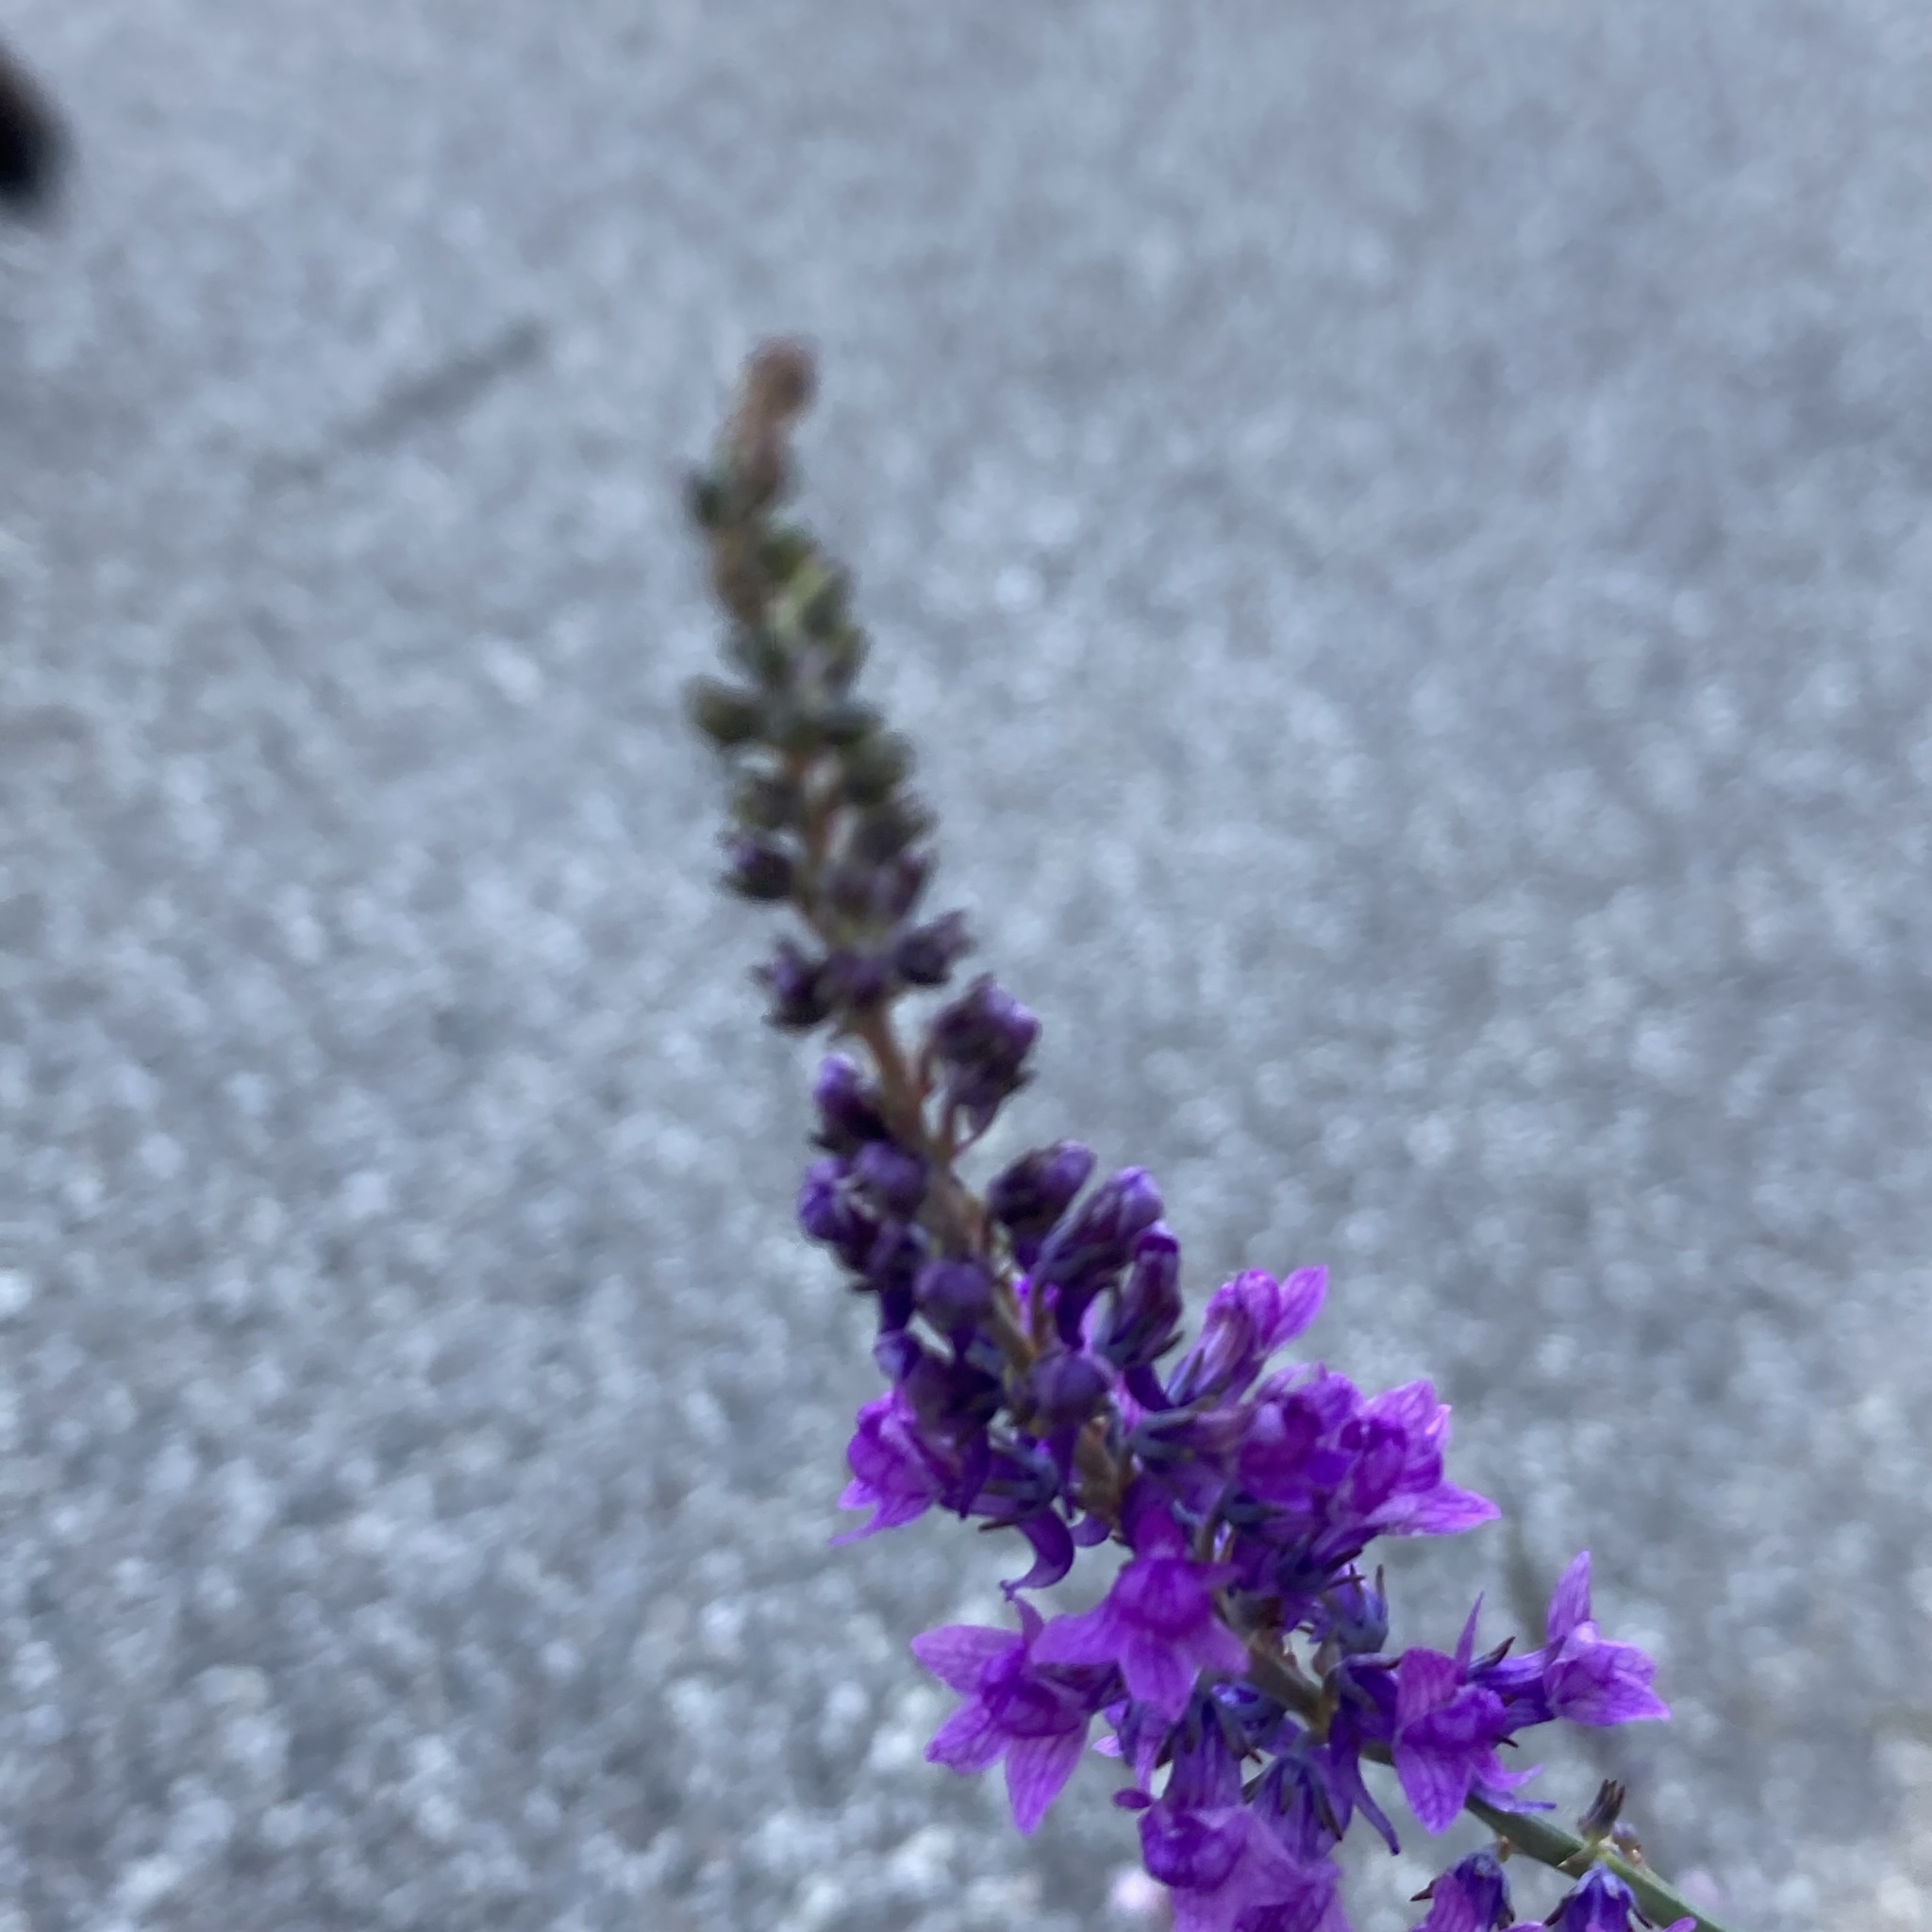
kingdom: Plantae
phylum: Tracheophyta
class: Magnoliopsida
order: Myrtales
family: Lythraceae
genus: Lythrum
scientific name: Lythrum salicaria
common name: Purple loosestrife
